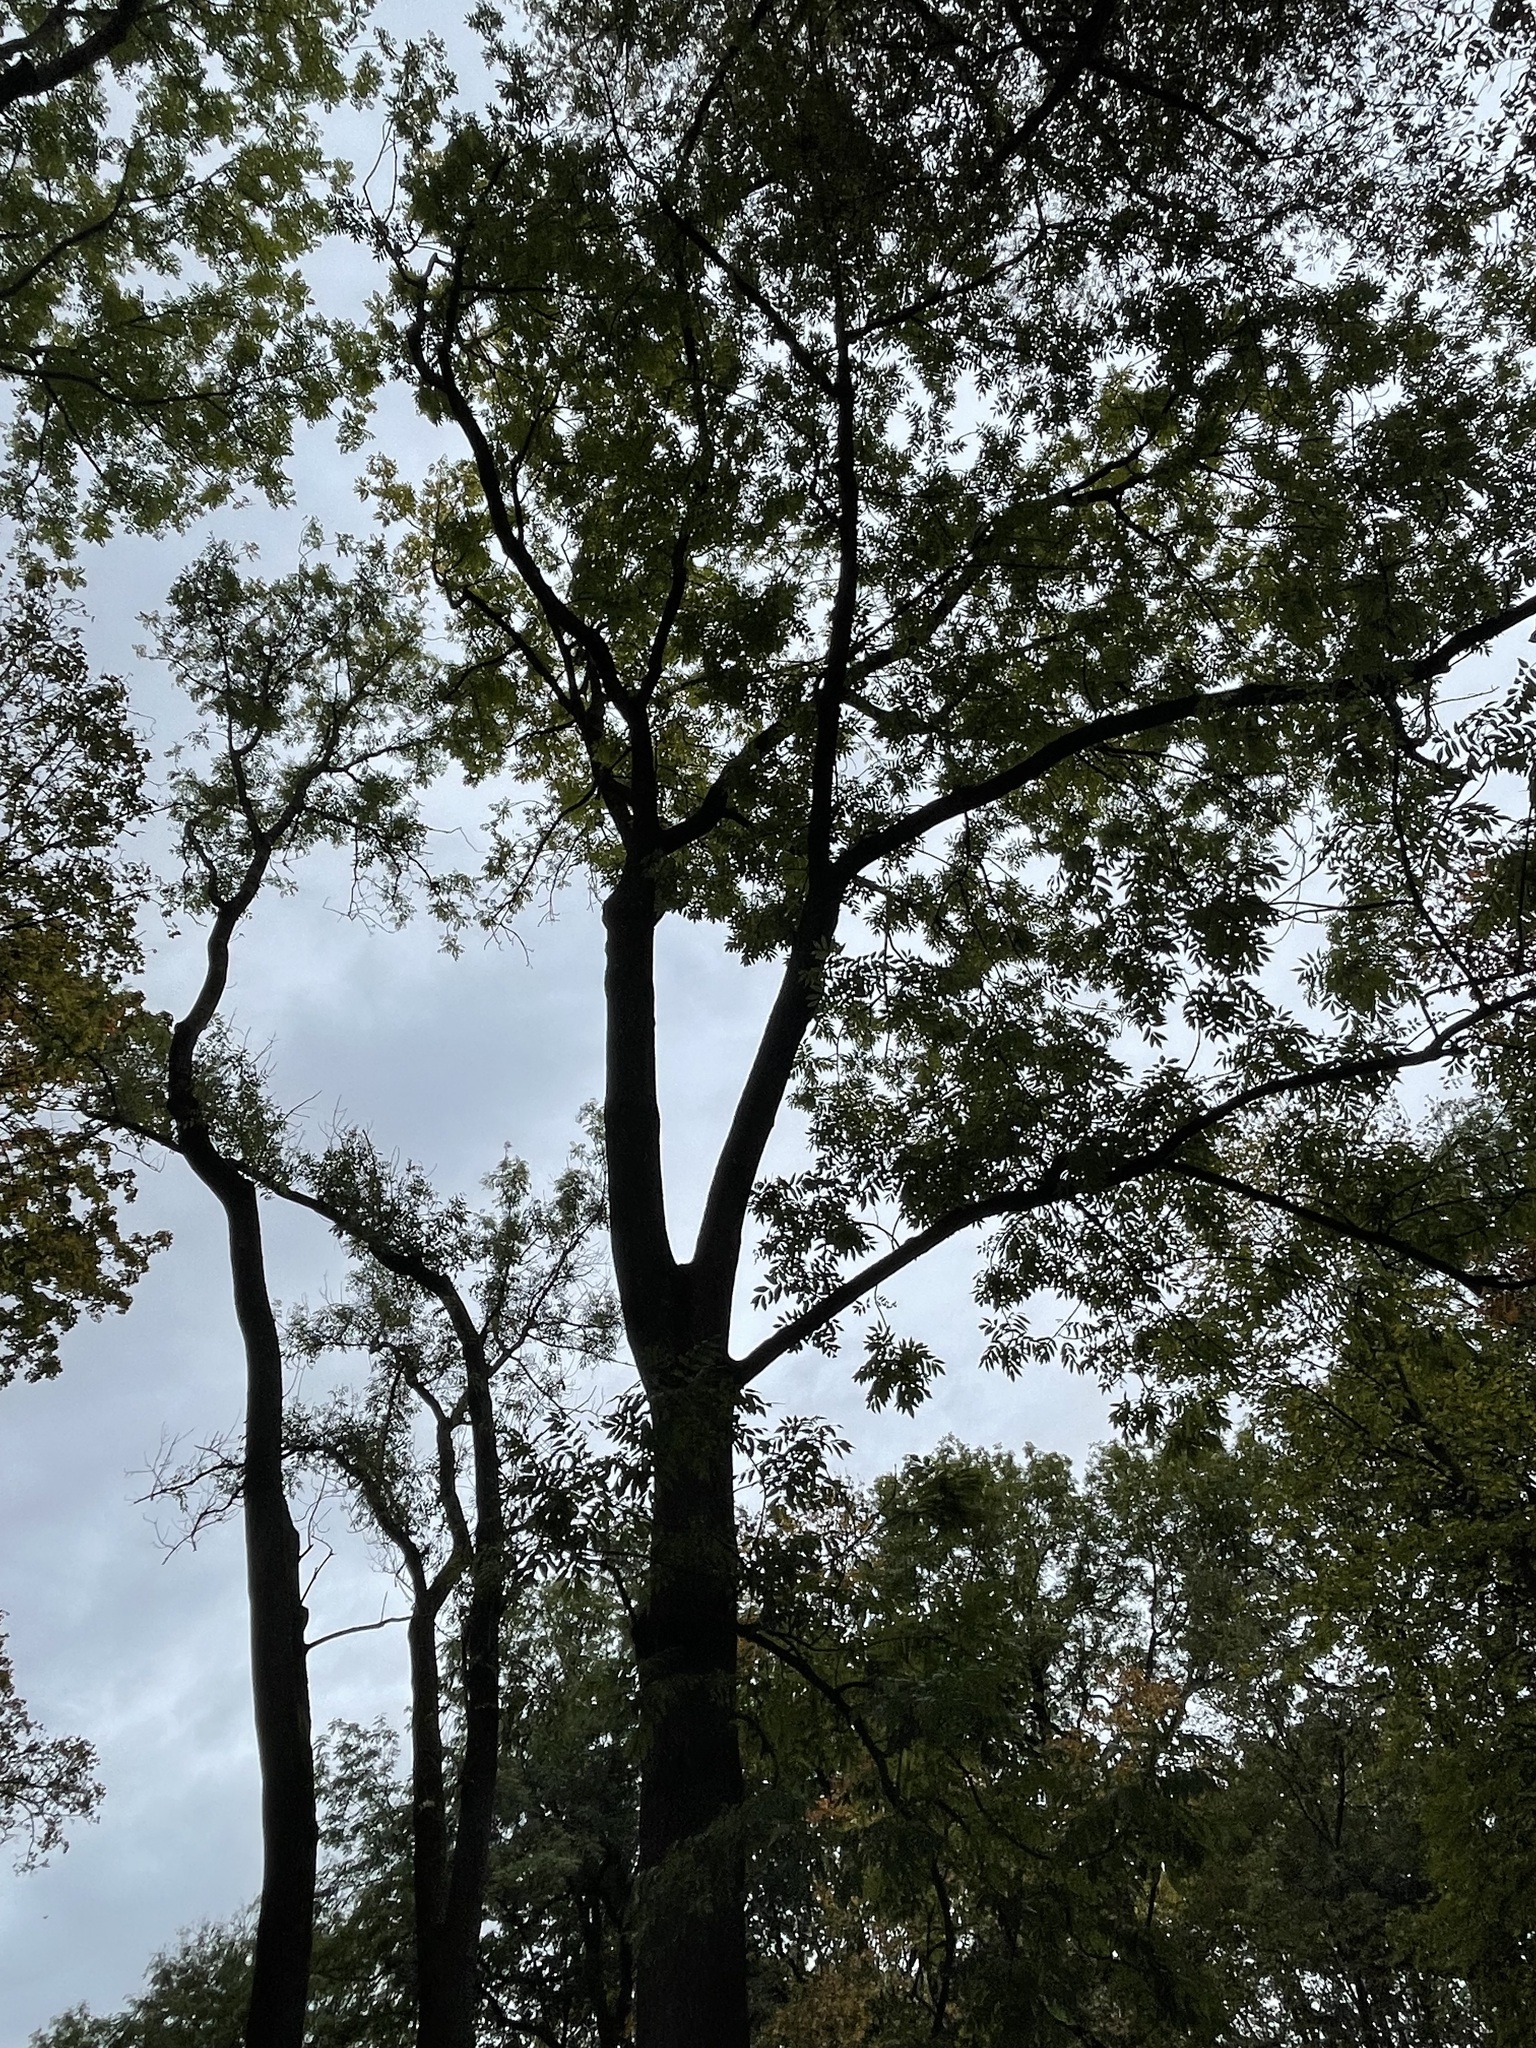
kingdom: Plantae
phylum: Tracheophyta
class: Magnoliopsida
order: Lamiales
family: Oleaceae
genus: Fraxinus
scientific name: Fraxinus excelsior
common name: European ash
